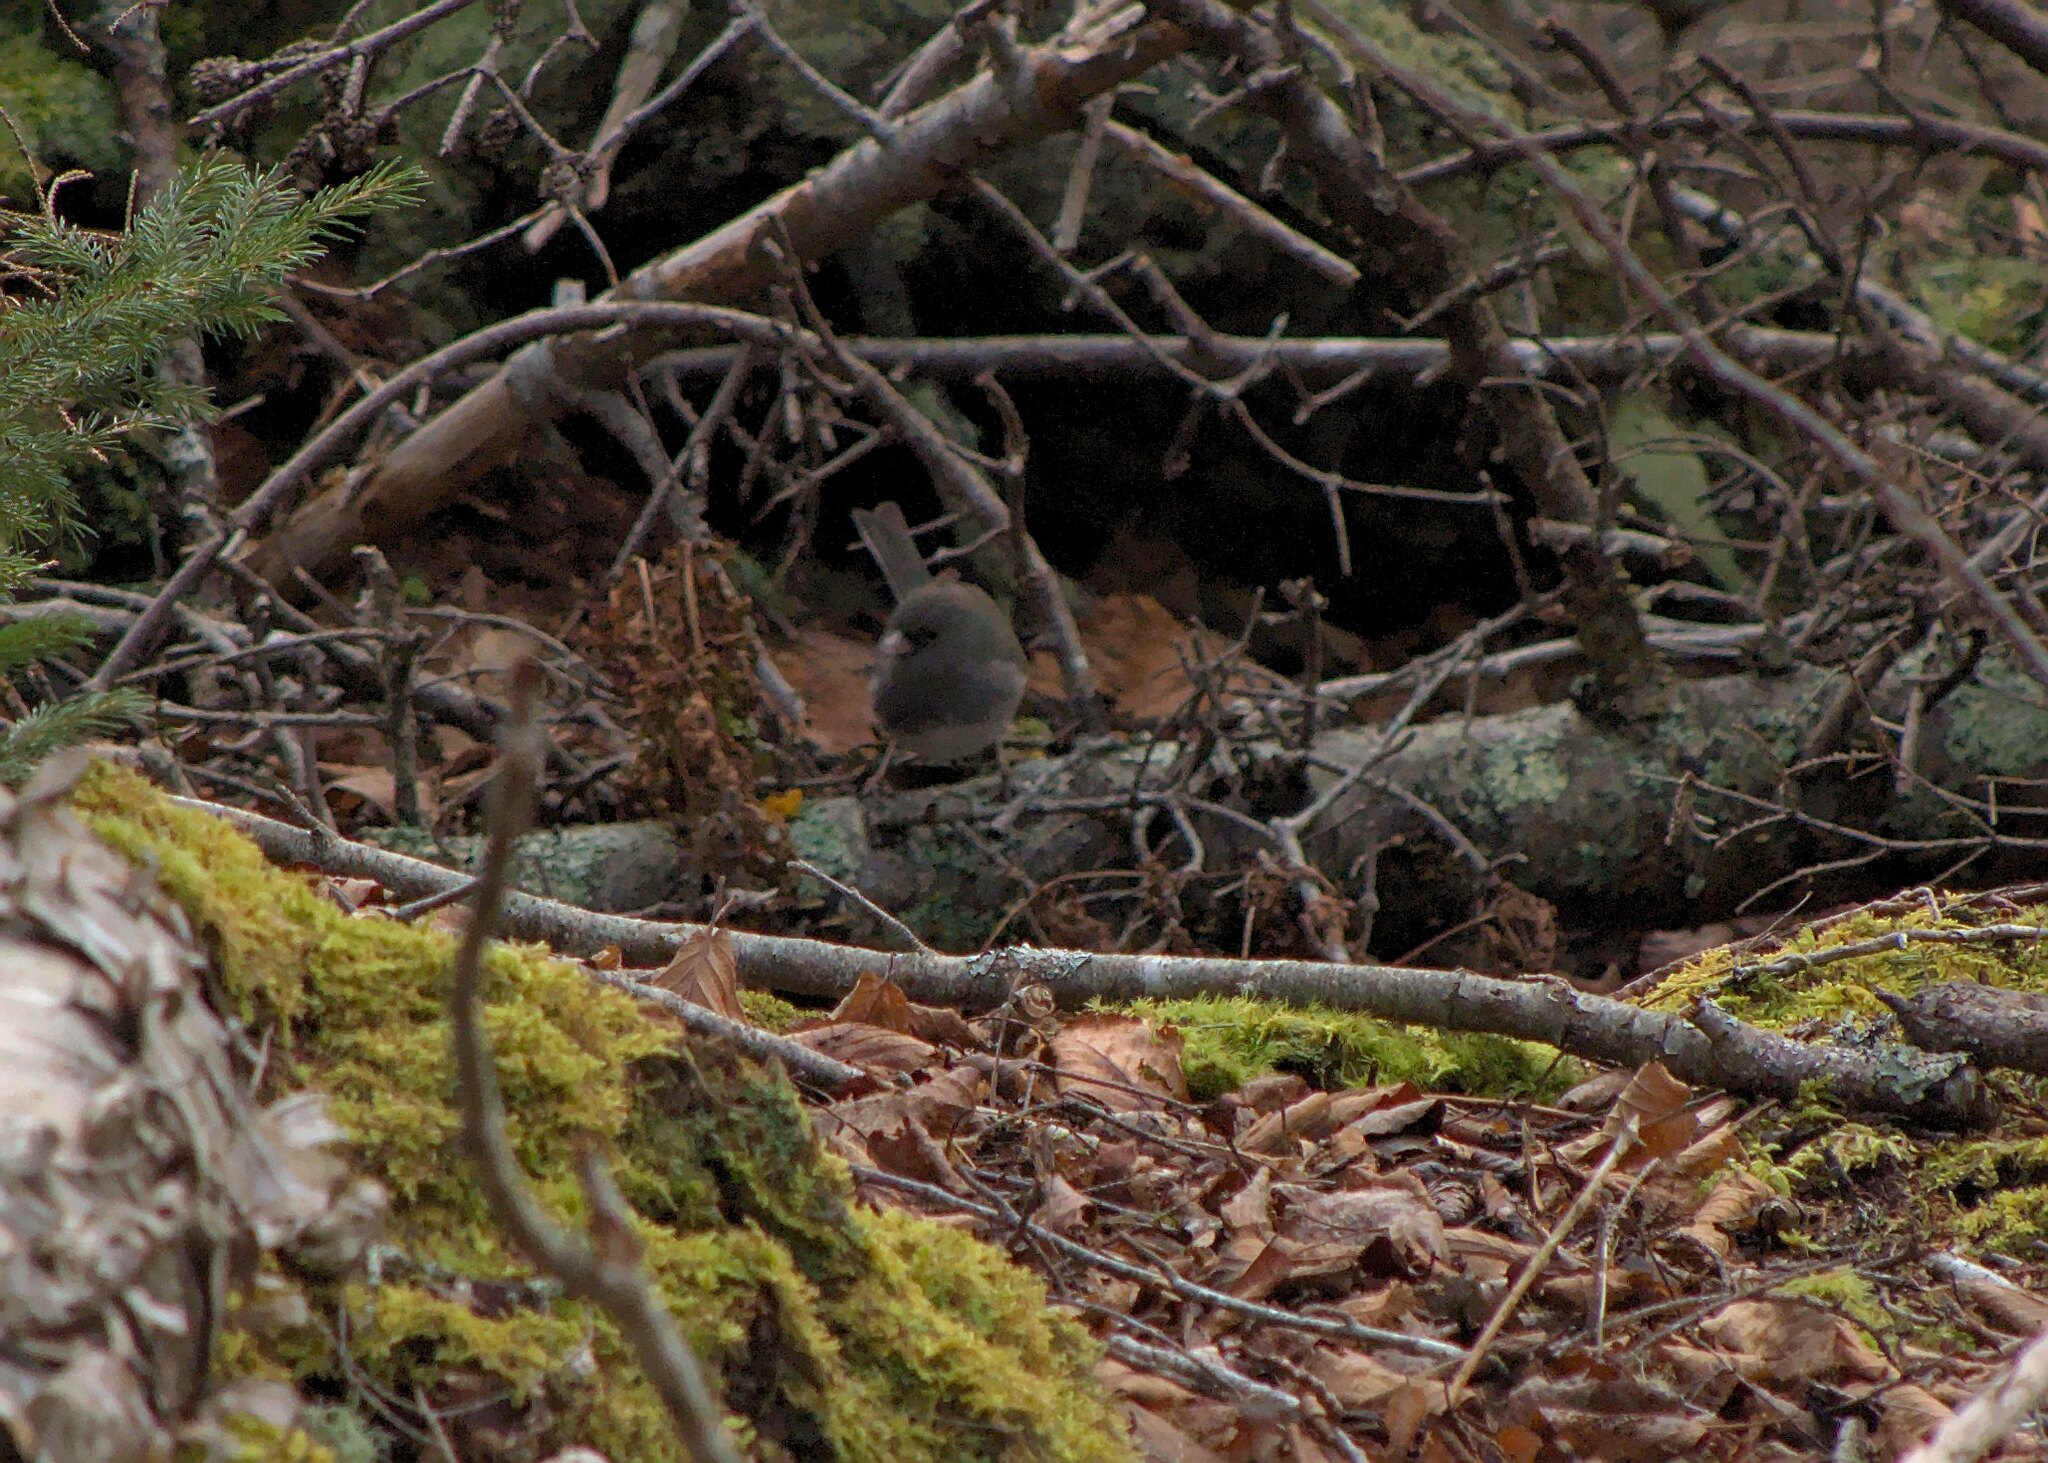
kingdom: Animalia
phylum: Chordata
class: Aves
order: Passeriformes
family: Passerellidae
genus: Junco
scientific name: Junco hyemalis
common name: Dark-eyed junco
